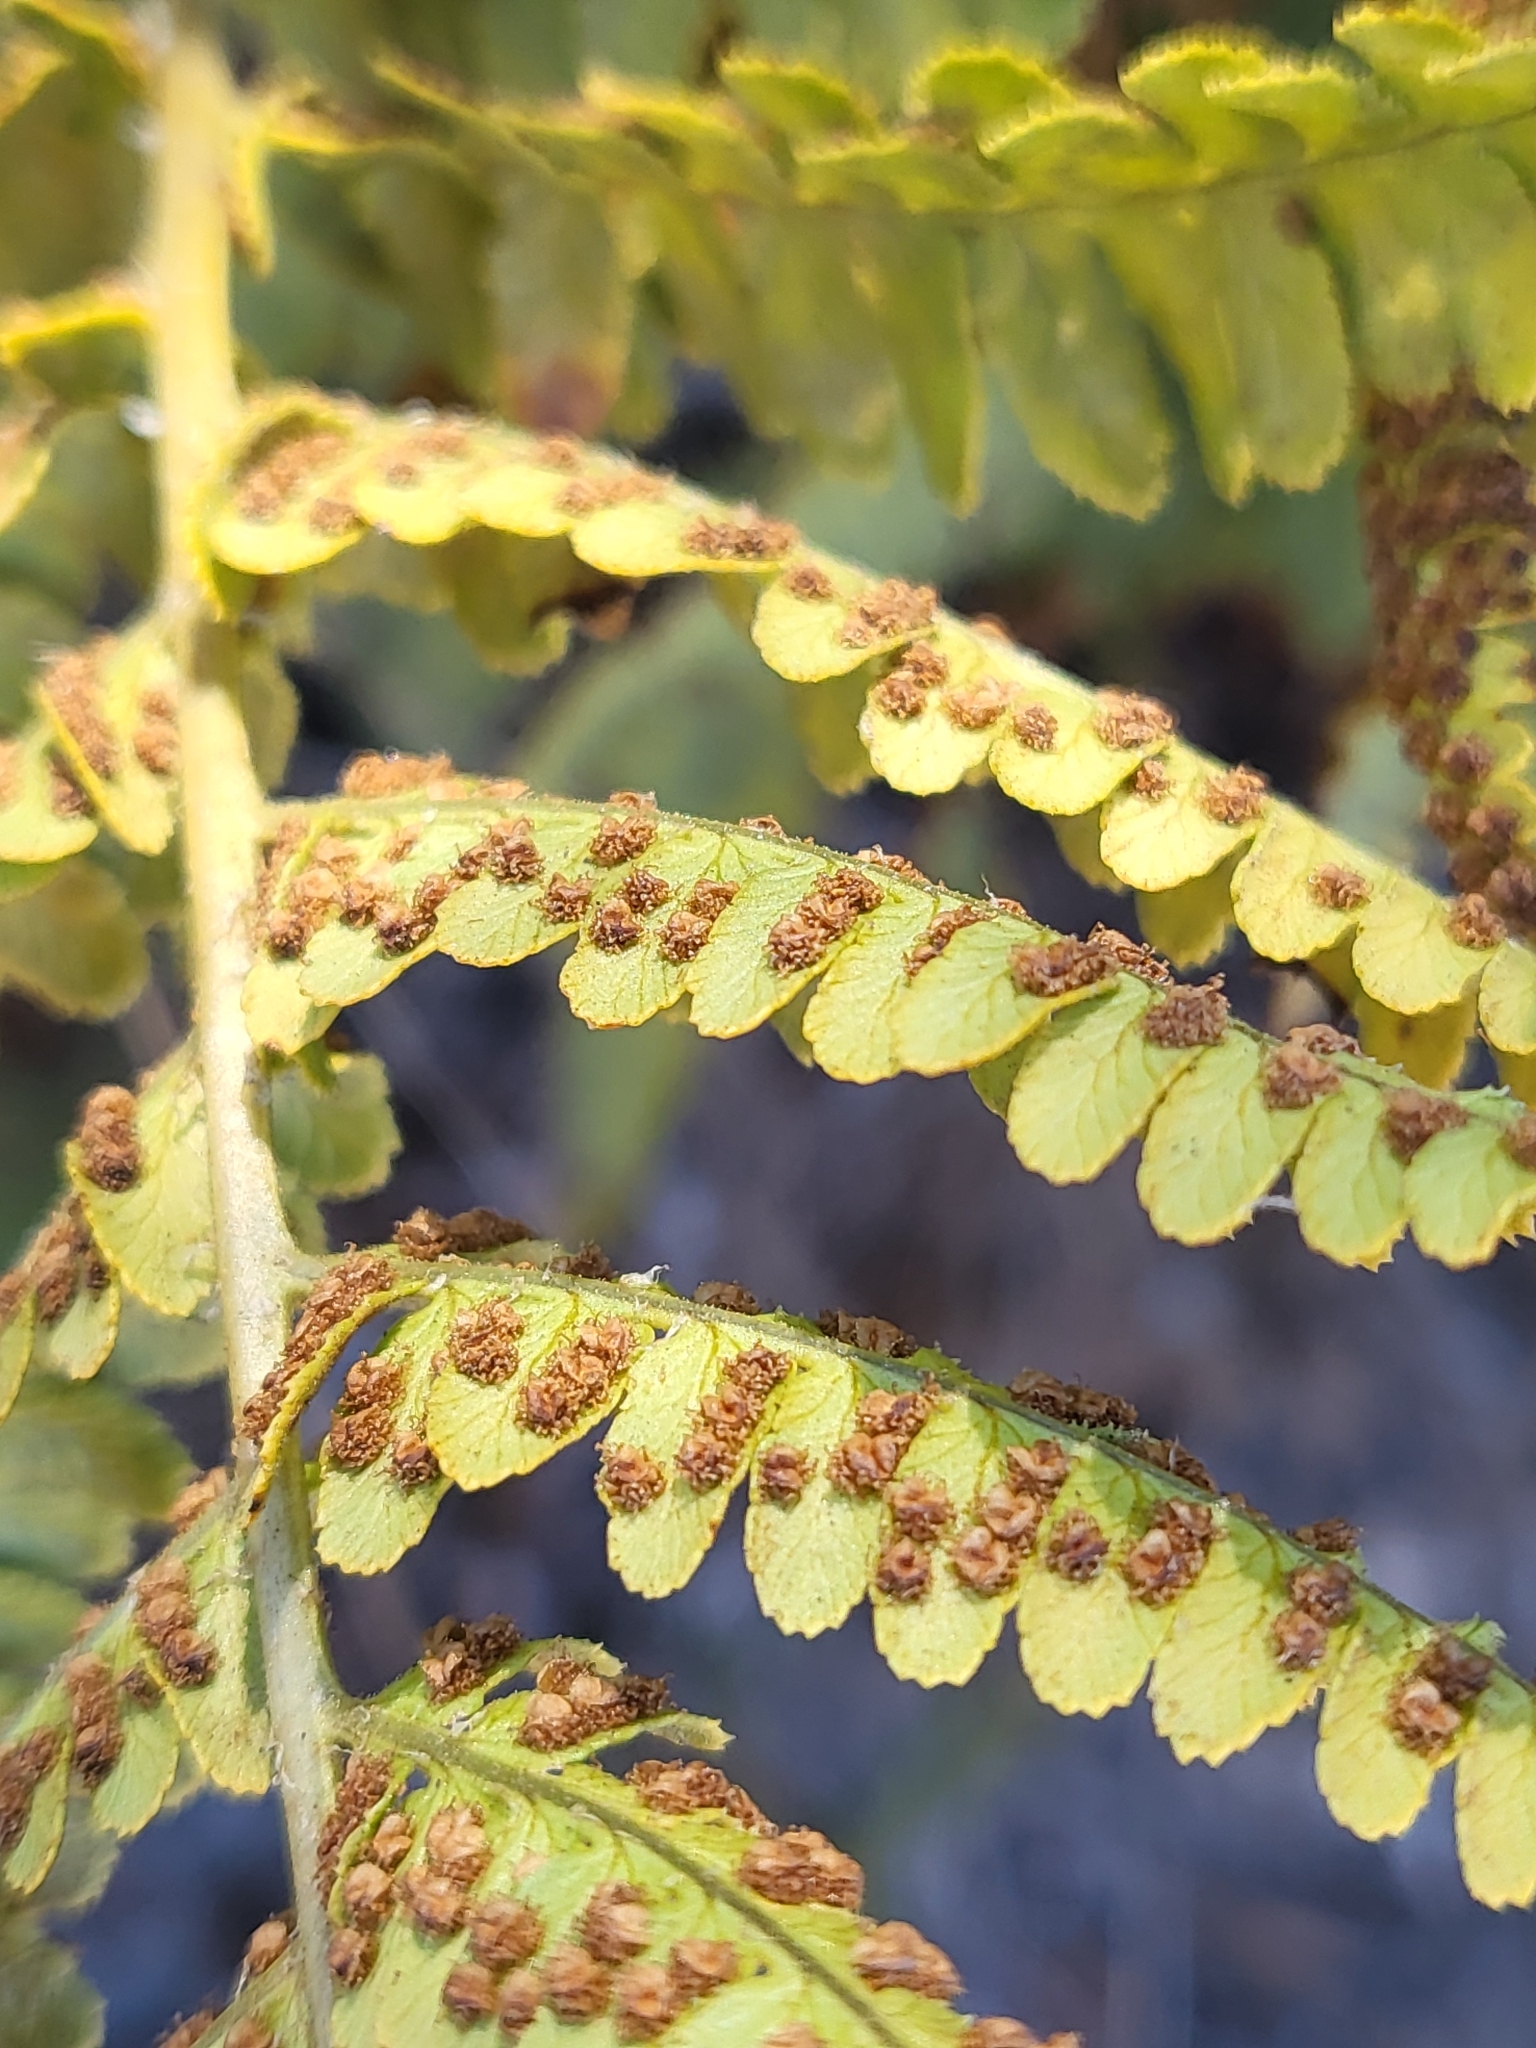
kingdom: Plantae
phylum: Tracheophyta
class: Polypodiopsida
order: Polypodiales
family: Dryopteridaceae
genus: Dryopteris
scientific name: Dryopteris arguta
